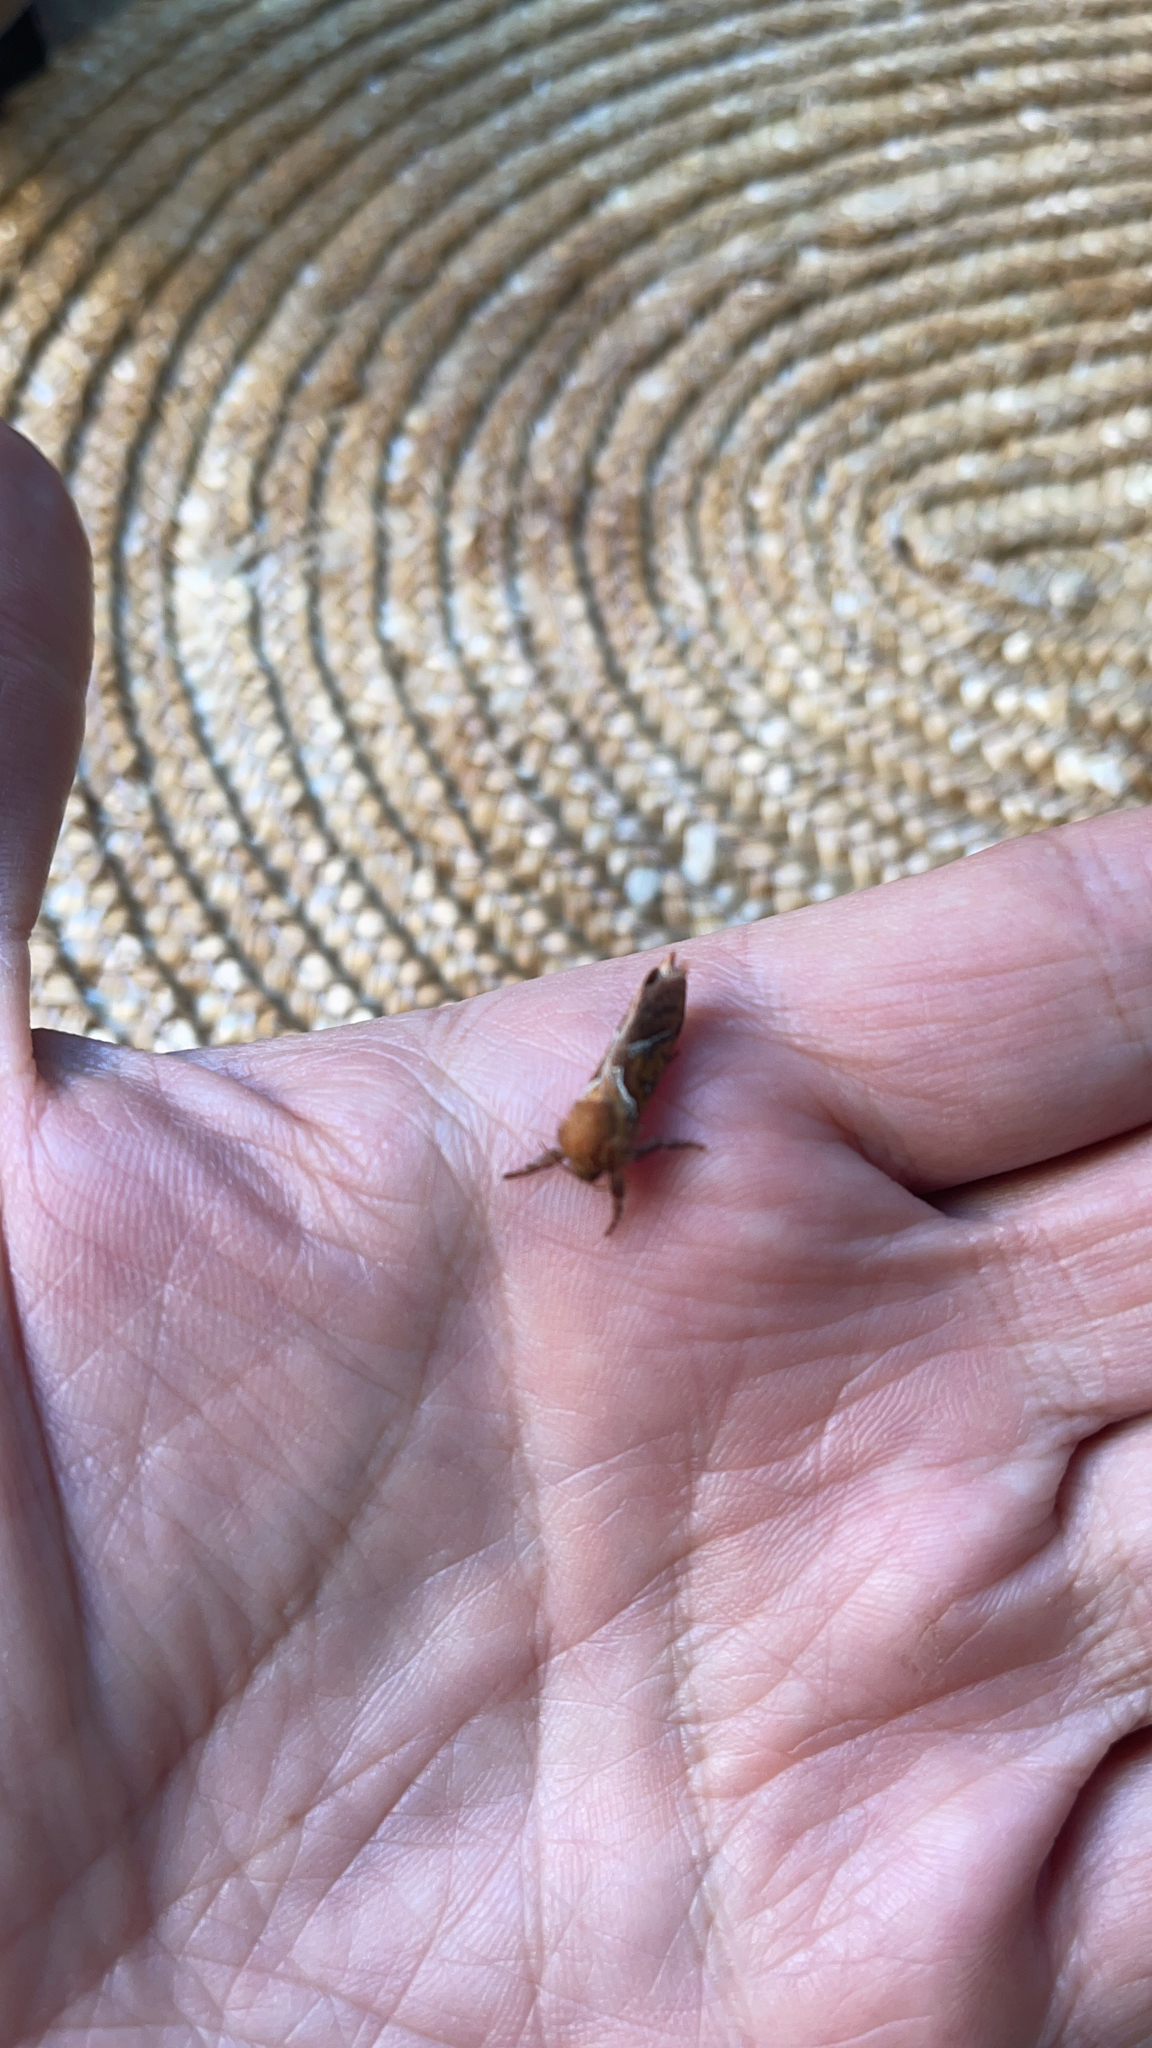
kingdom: Animalia
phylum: Arthropoda
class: Insecta
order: Lepidoptera
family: Hepialidae
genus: Triodia
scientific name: Triodia sylvina
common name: Orange swift
